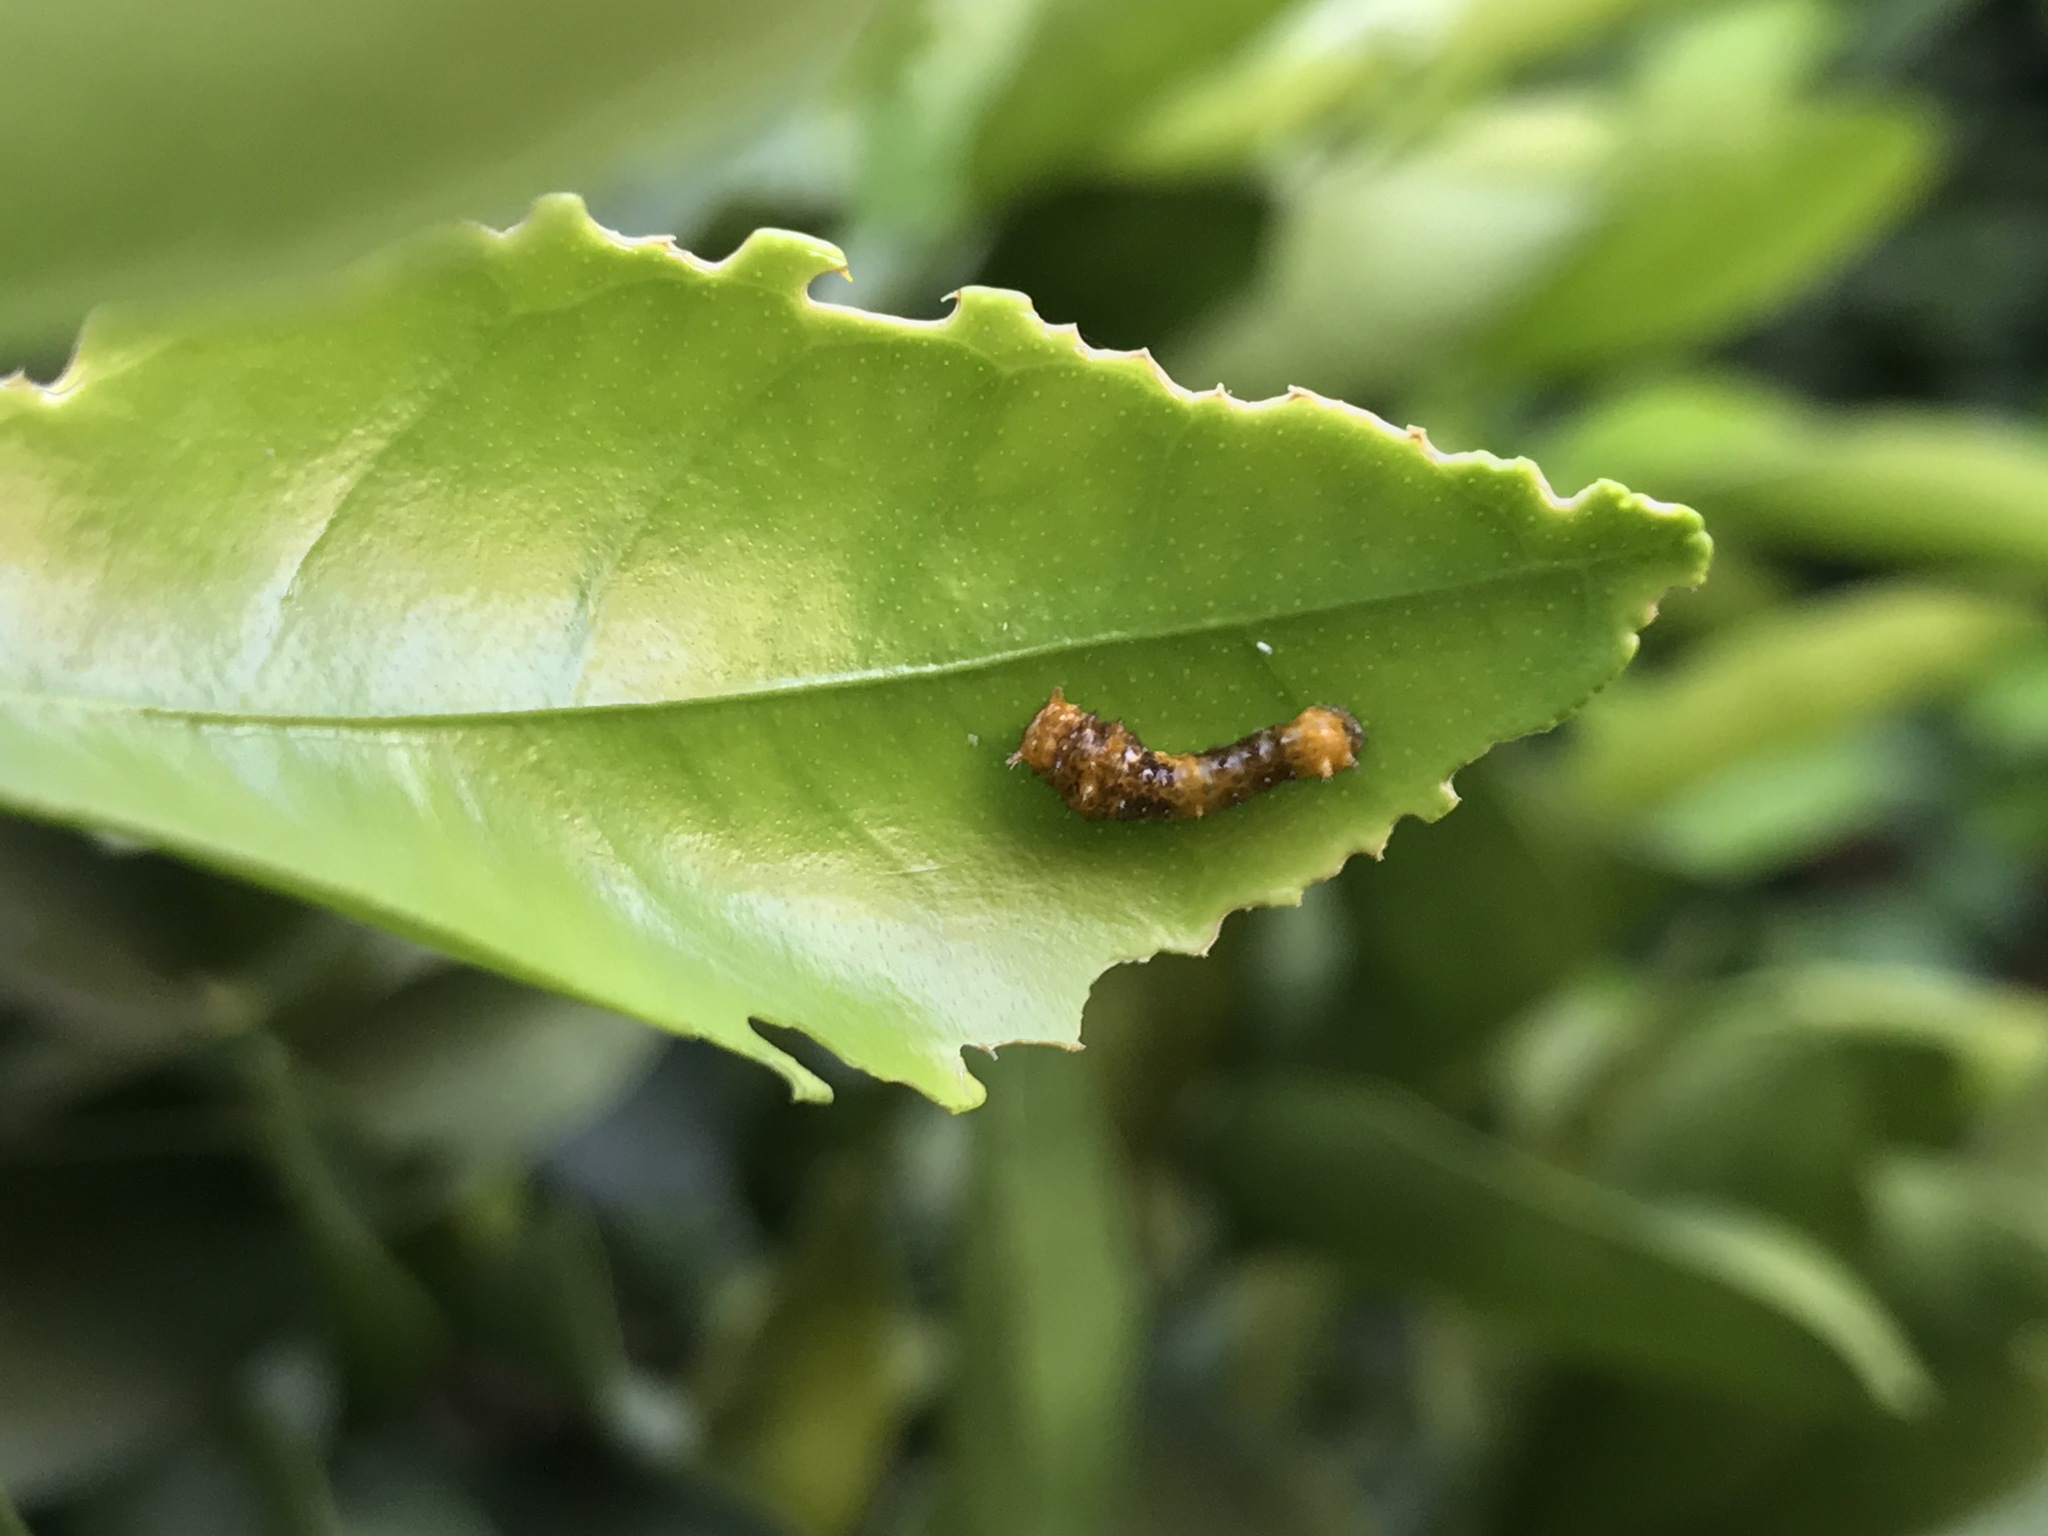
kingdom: Animalia
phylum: Arthropoda
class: Insecta
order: Lepidoptera
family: Papilionidae
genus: Papilio
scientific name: Papilio rumiko
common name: Western giant swallowtail
